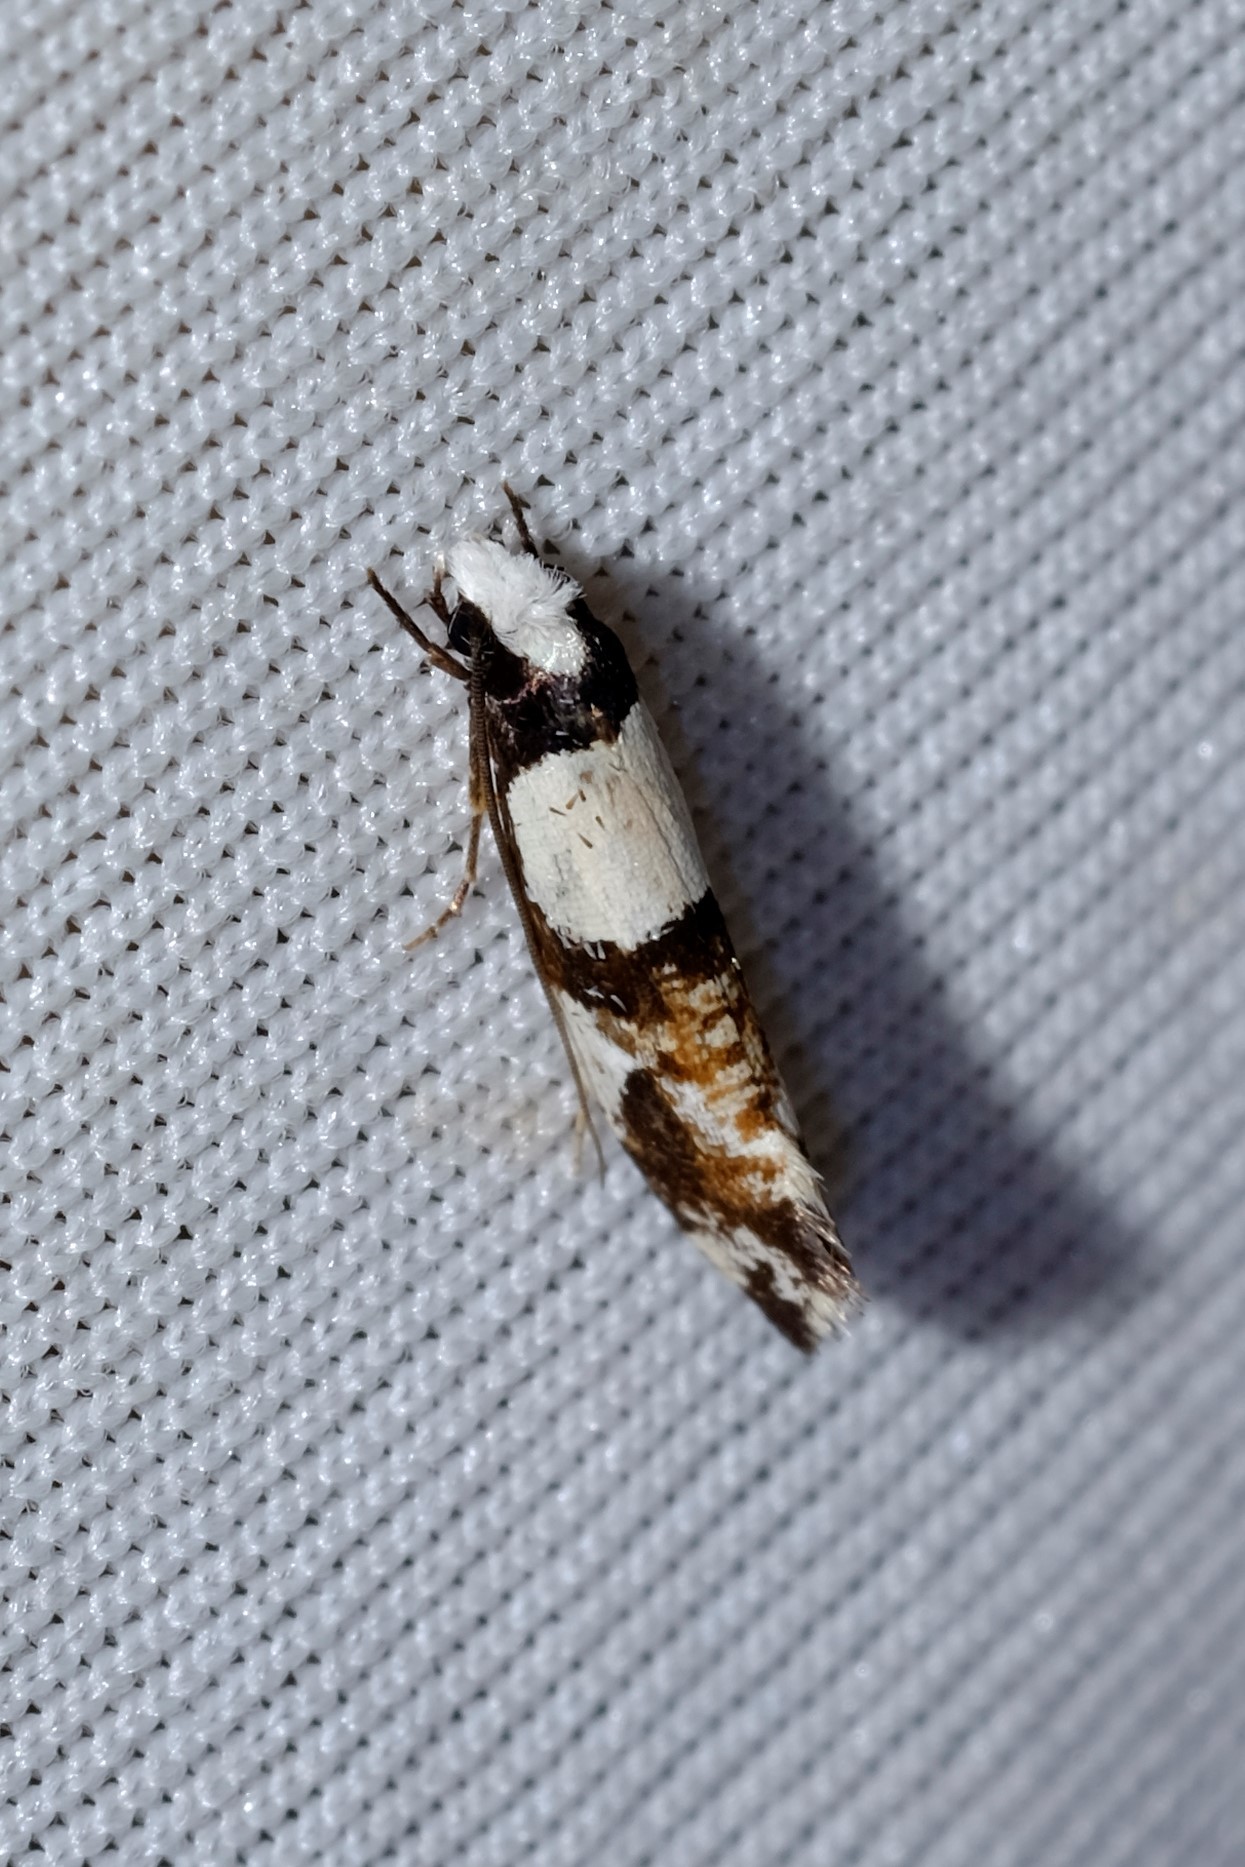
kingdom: Animalia
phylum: Arthropoda
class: Insecta
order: Lepidoptera
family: Tineidae
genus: Monopis
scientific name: Monopis icterogastra
